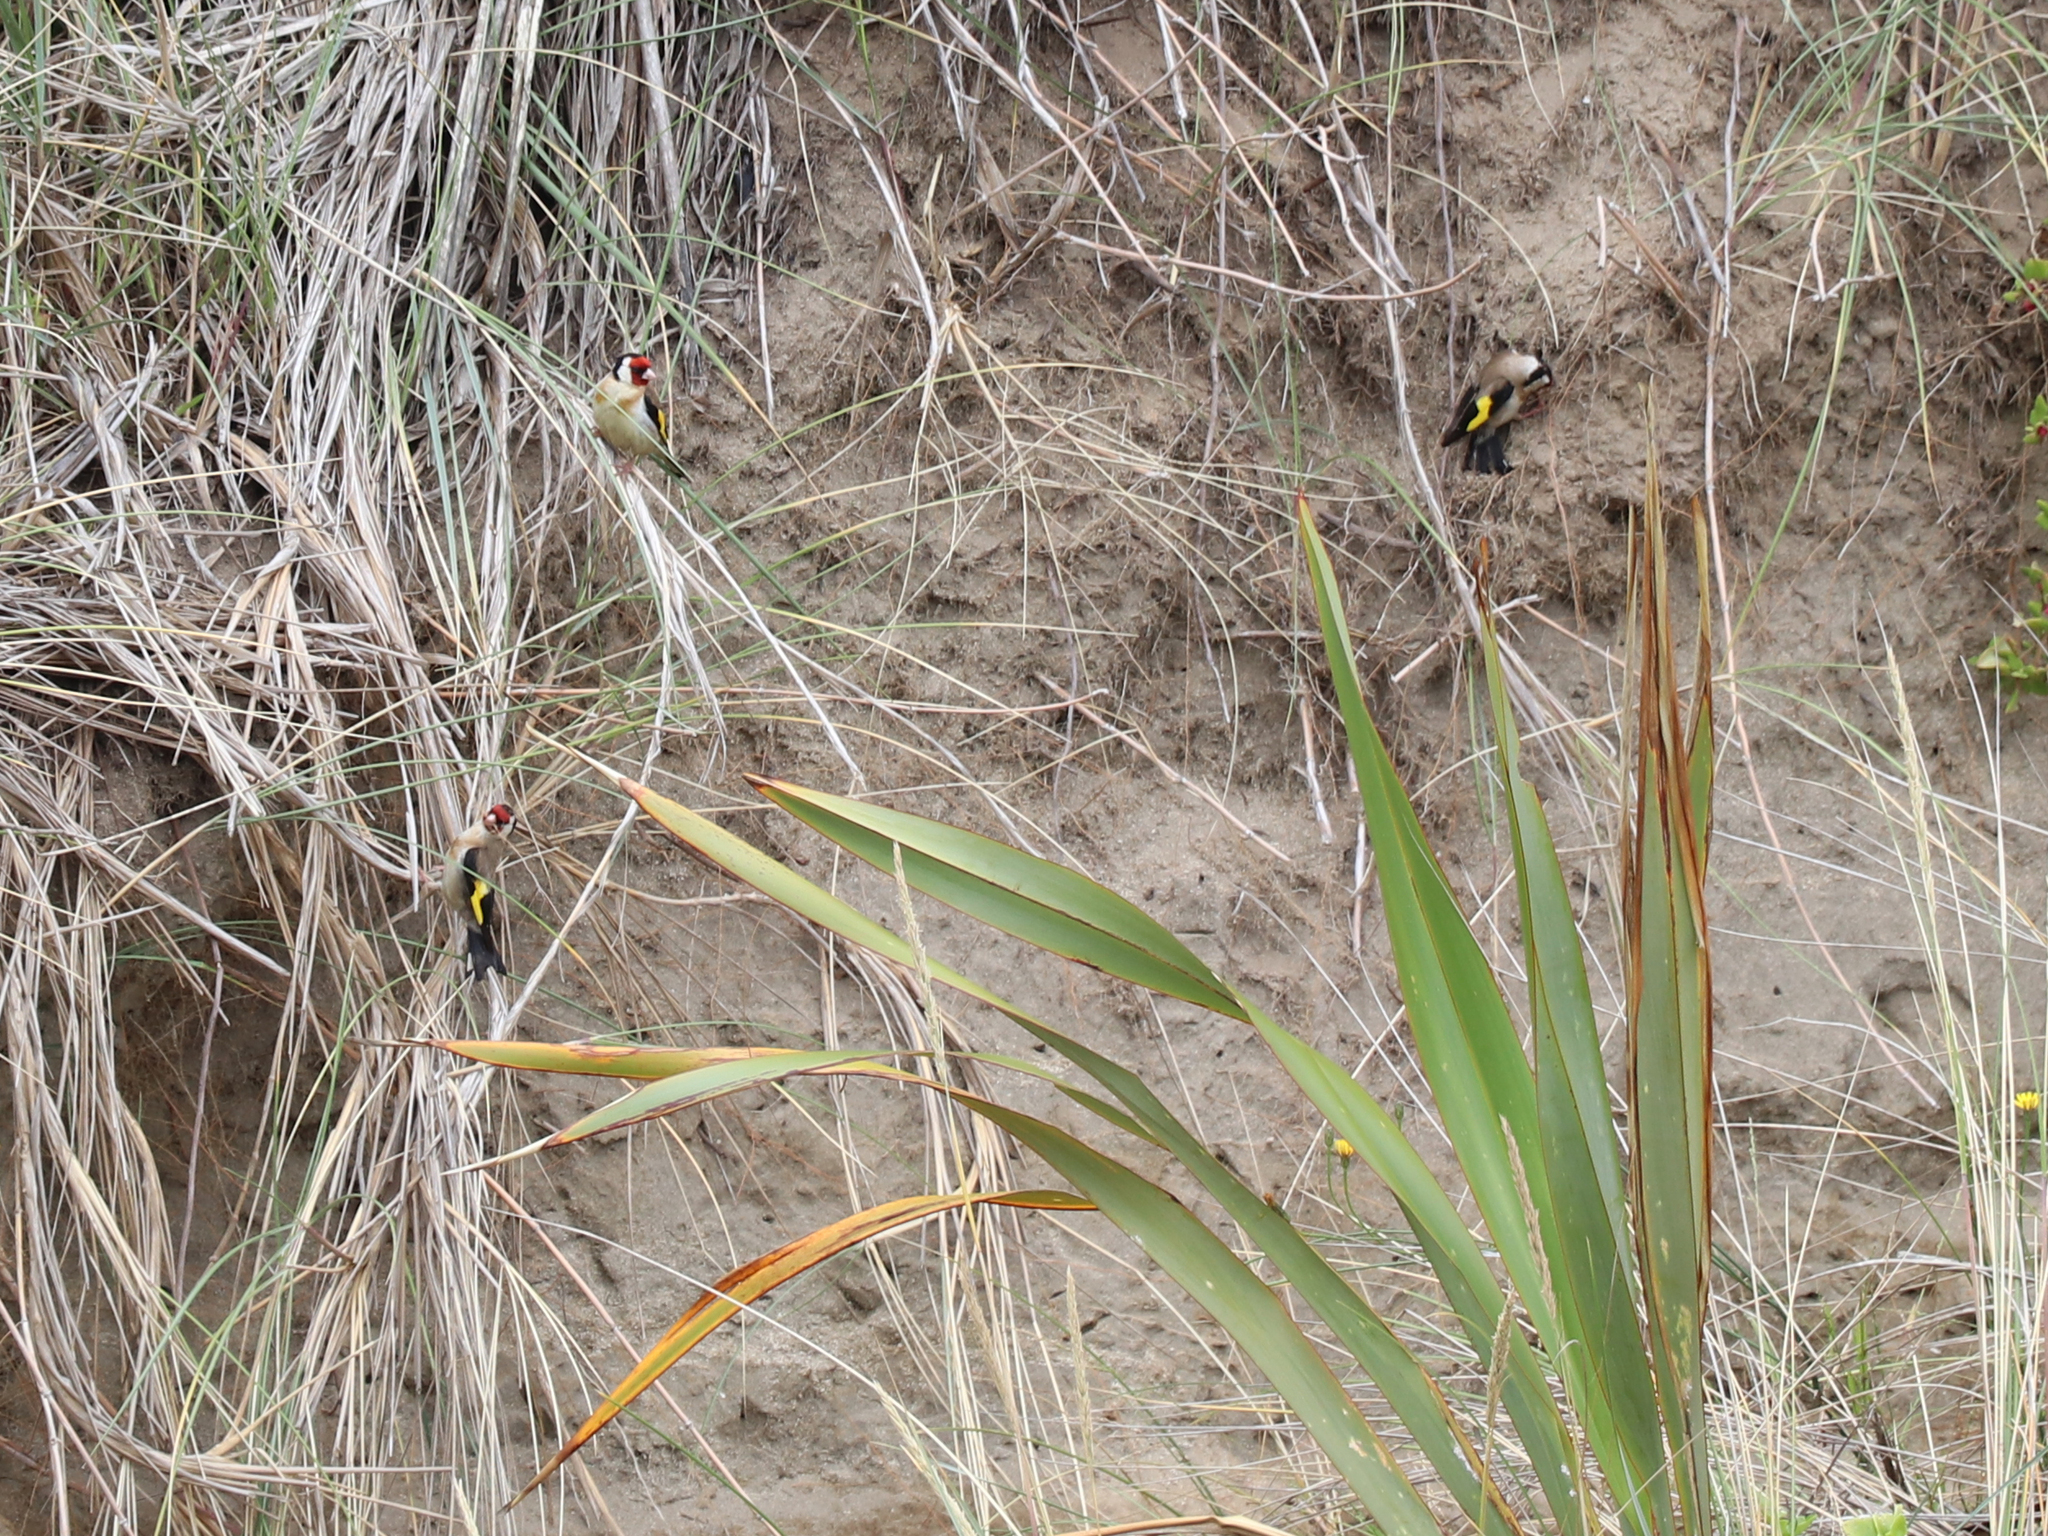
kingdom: Animalia
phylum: Chordata
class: Aves
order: Passeriformes
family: Fringillidae
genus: Carduelis
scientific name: Carduelis carduelis
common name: European goldfinch
